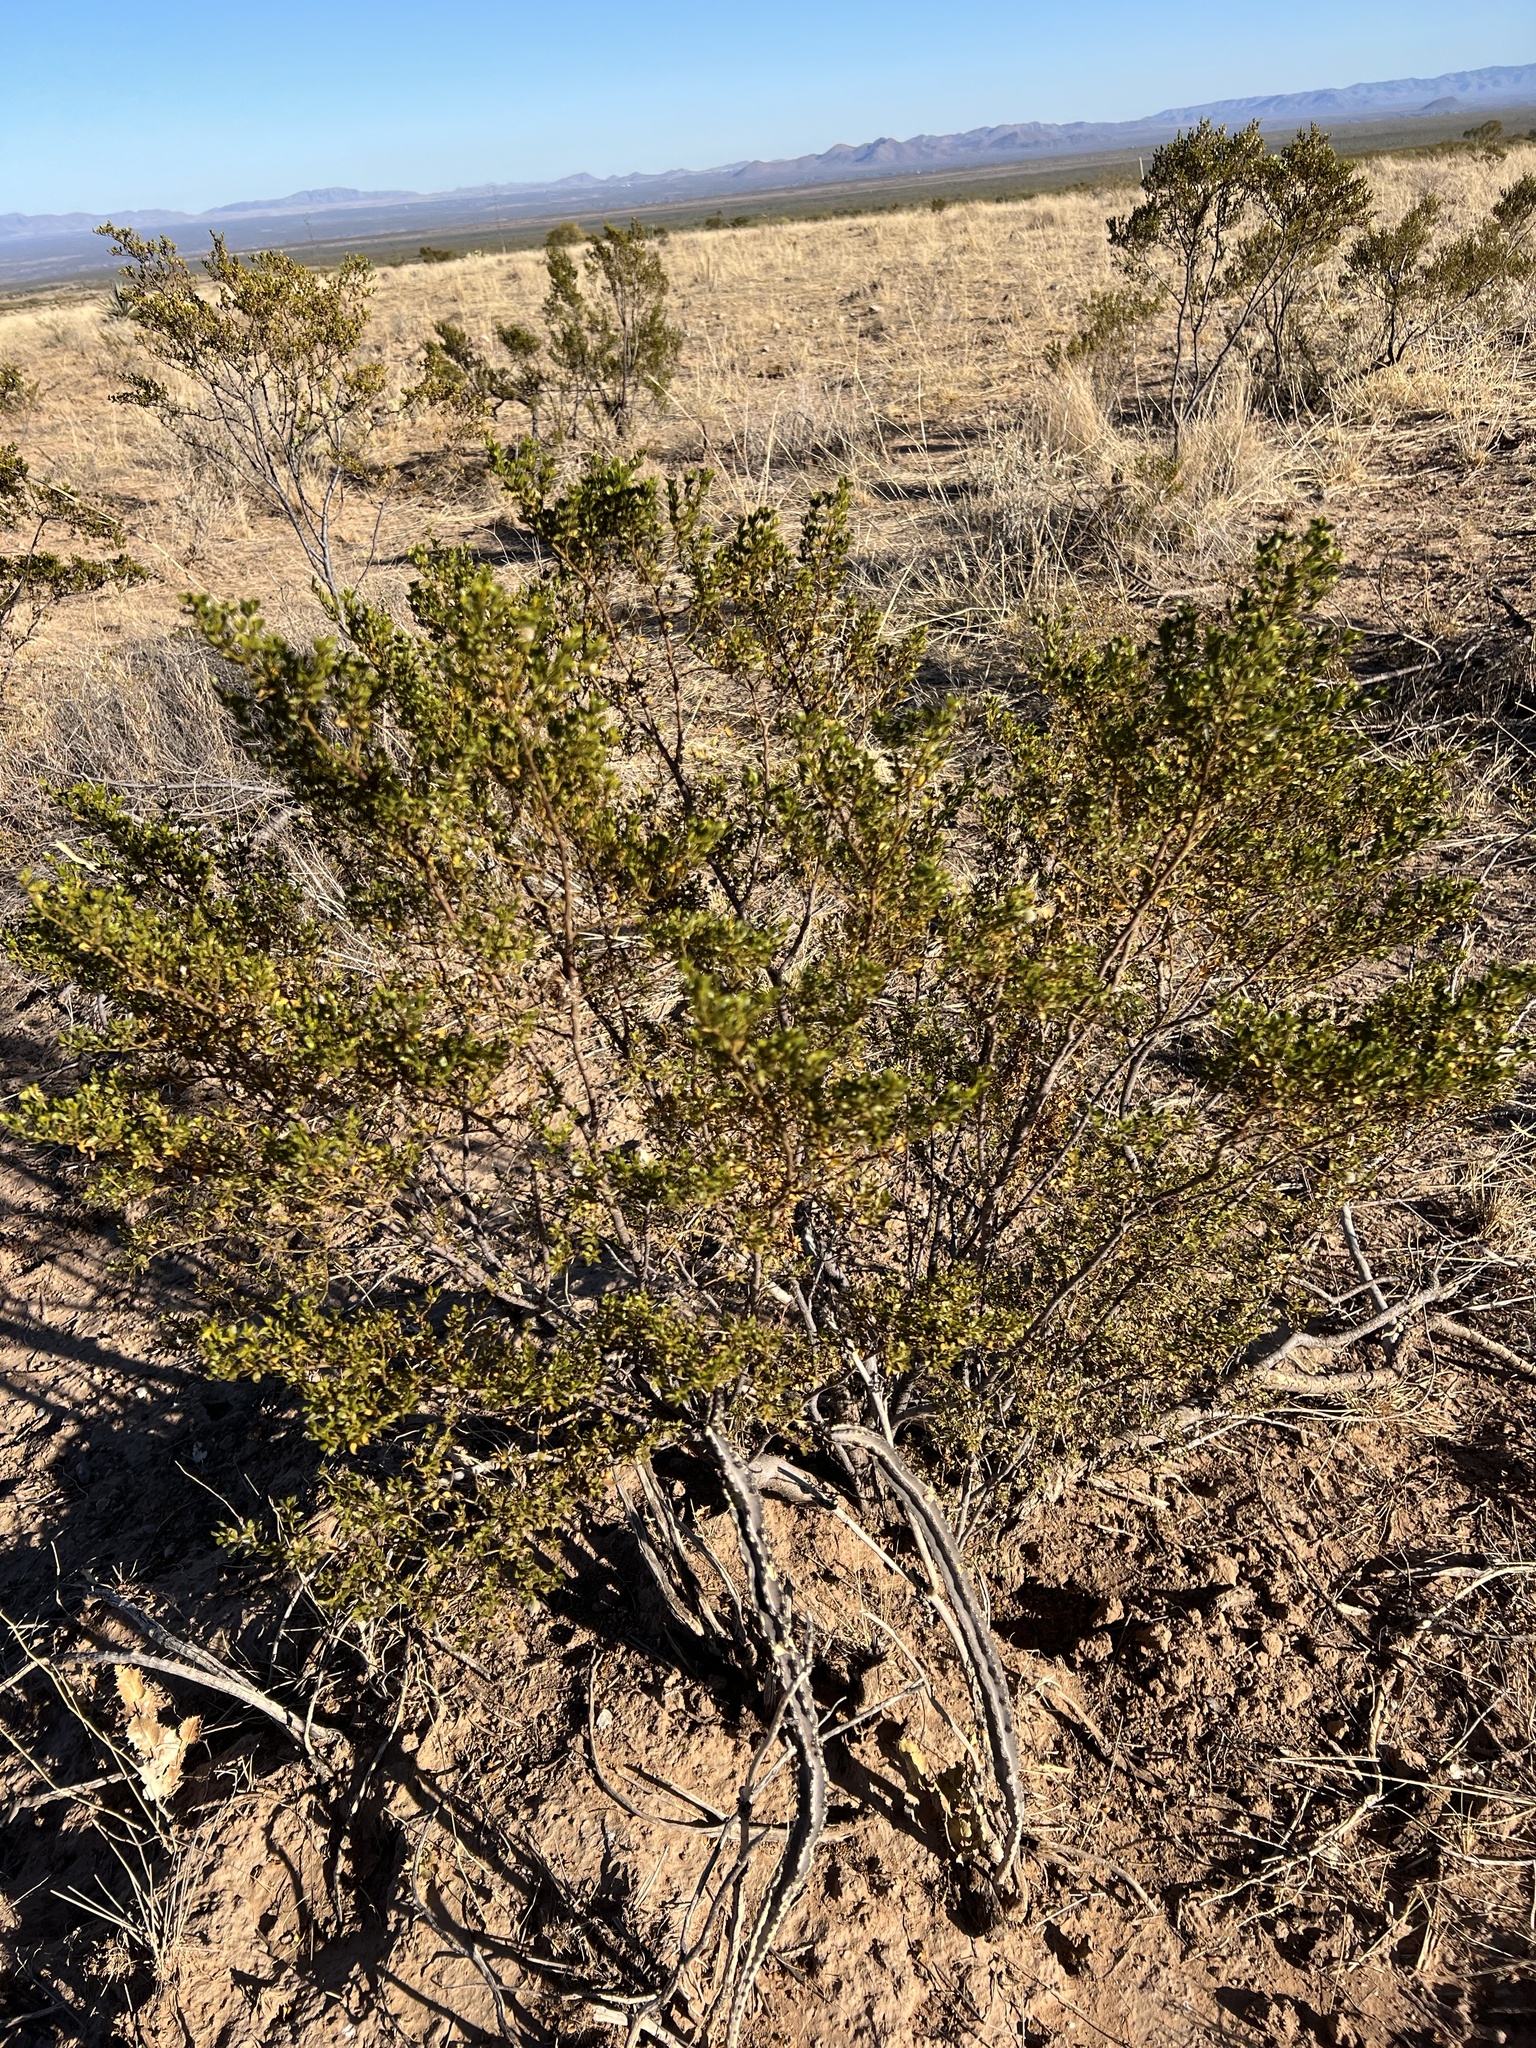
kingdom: Plantae
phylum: Tracheophyta
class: Magnoliopsida
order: Zygophyllales
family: Zygophyllaceae
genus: Larrea
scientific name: Larrea tridentata
